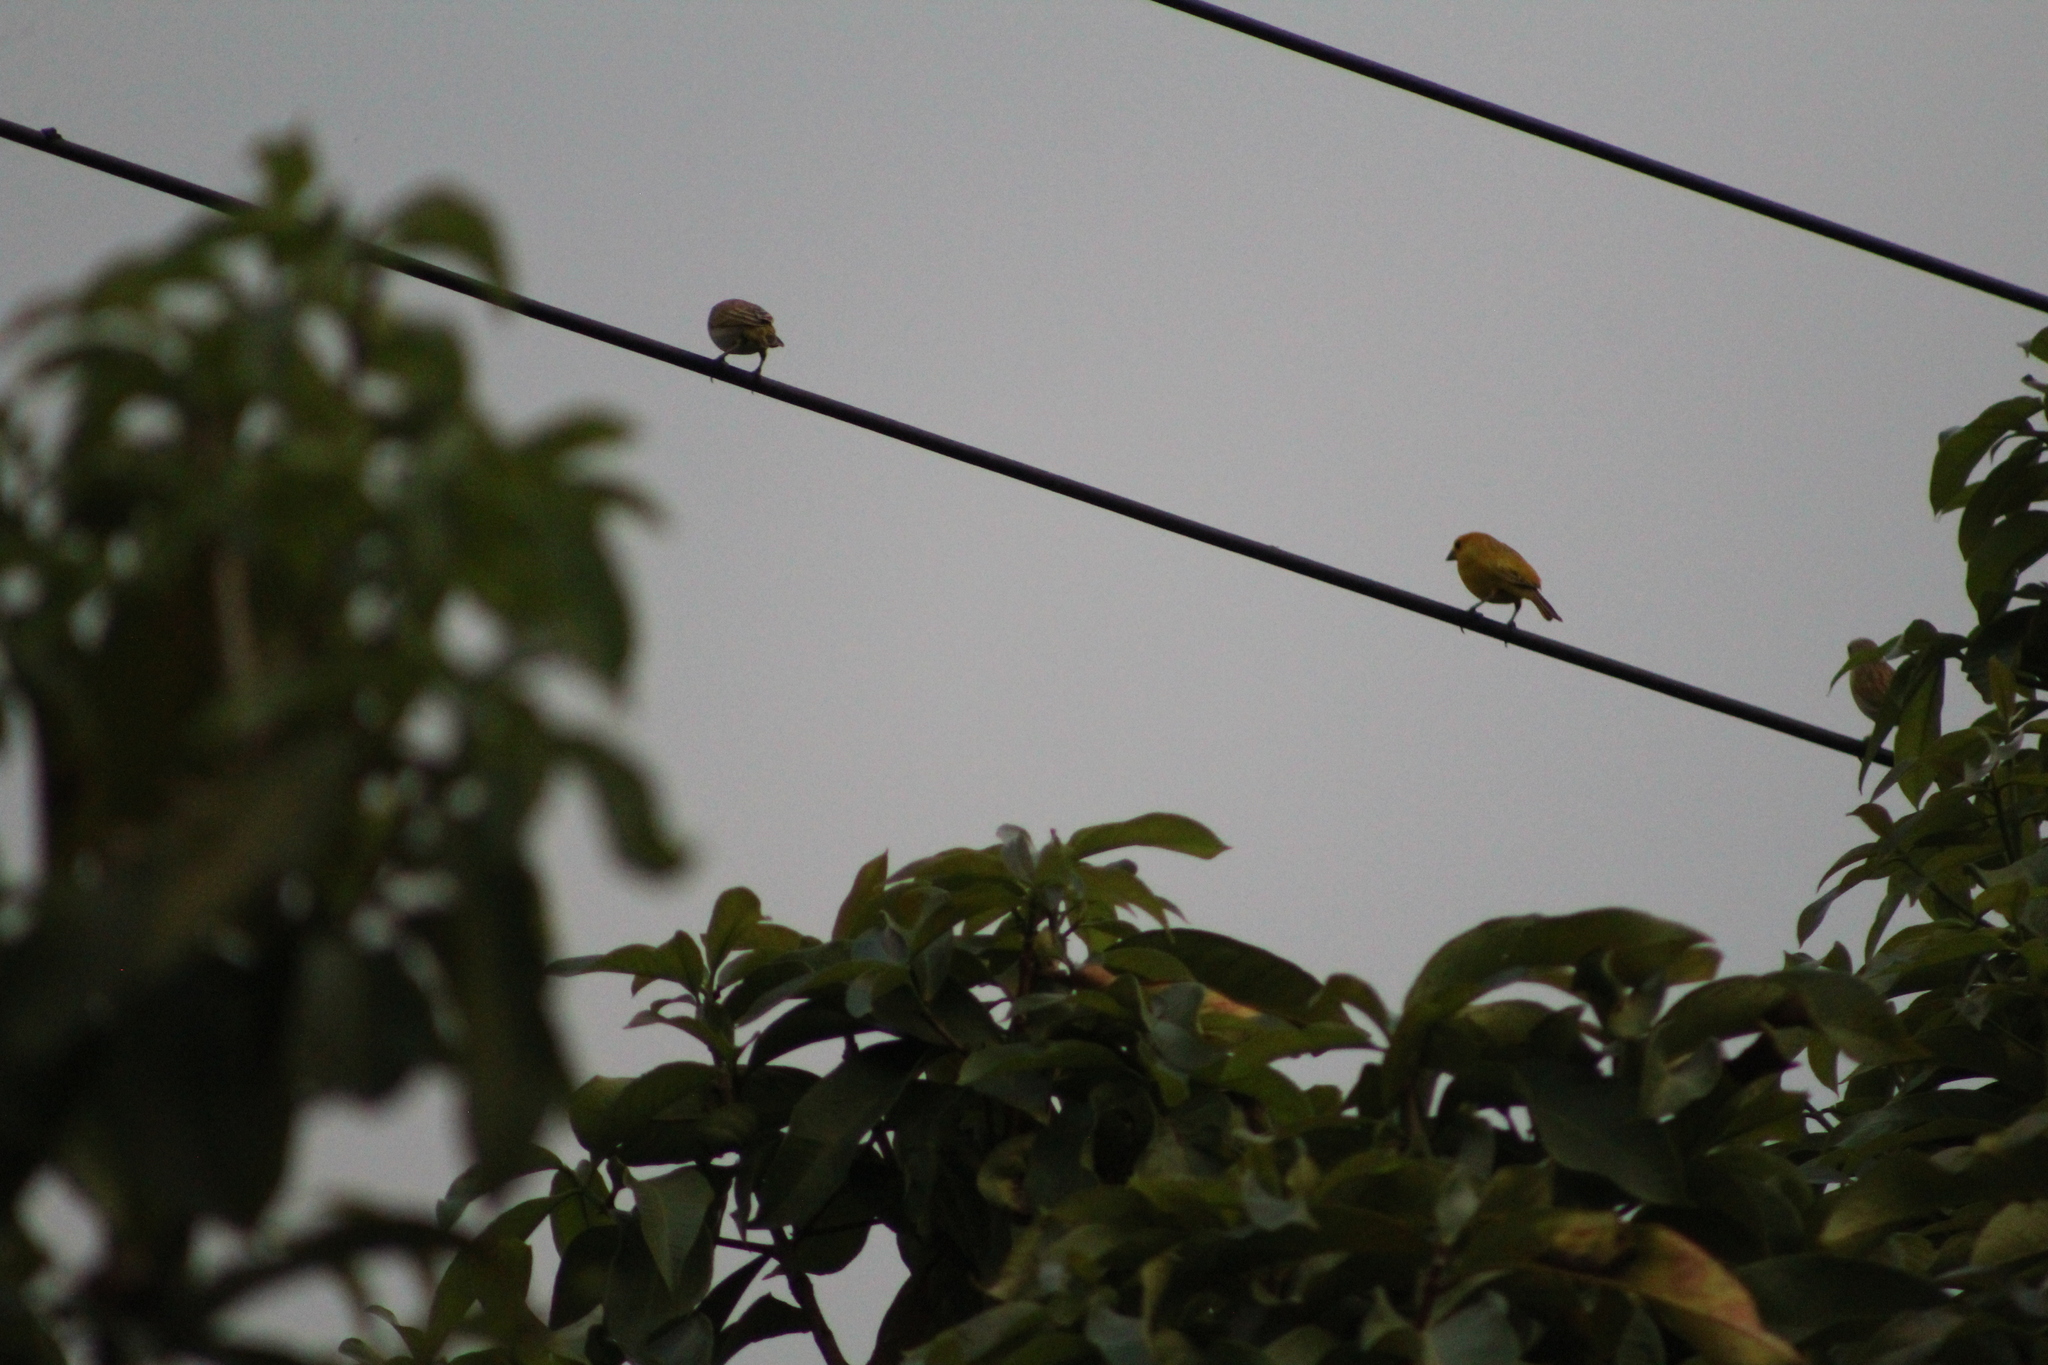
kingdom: Animalia
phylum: Chordata
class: Aves
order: Passeriformes
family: Thraupidae
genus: Sicalis
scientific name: Sicalis flaveola
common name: Saffron finch
